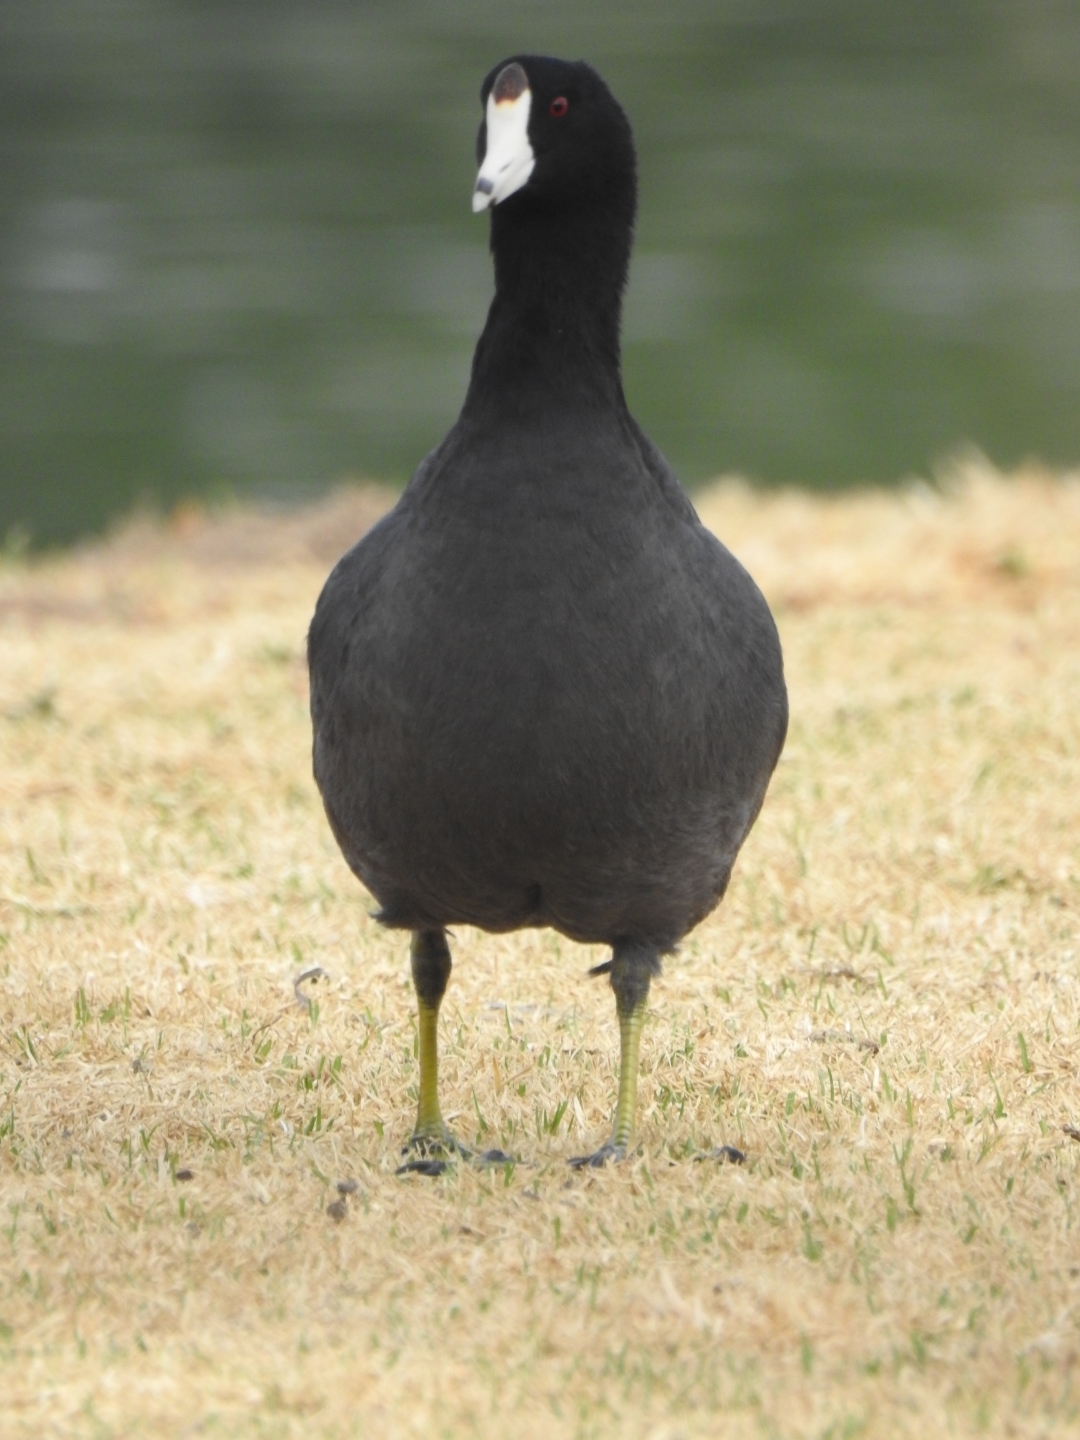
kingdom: Animalia
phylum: Chordata
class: Aves
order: Gruiformes
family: Rallidae
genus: Fulica
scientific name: Fulica americana
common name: American coot
